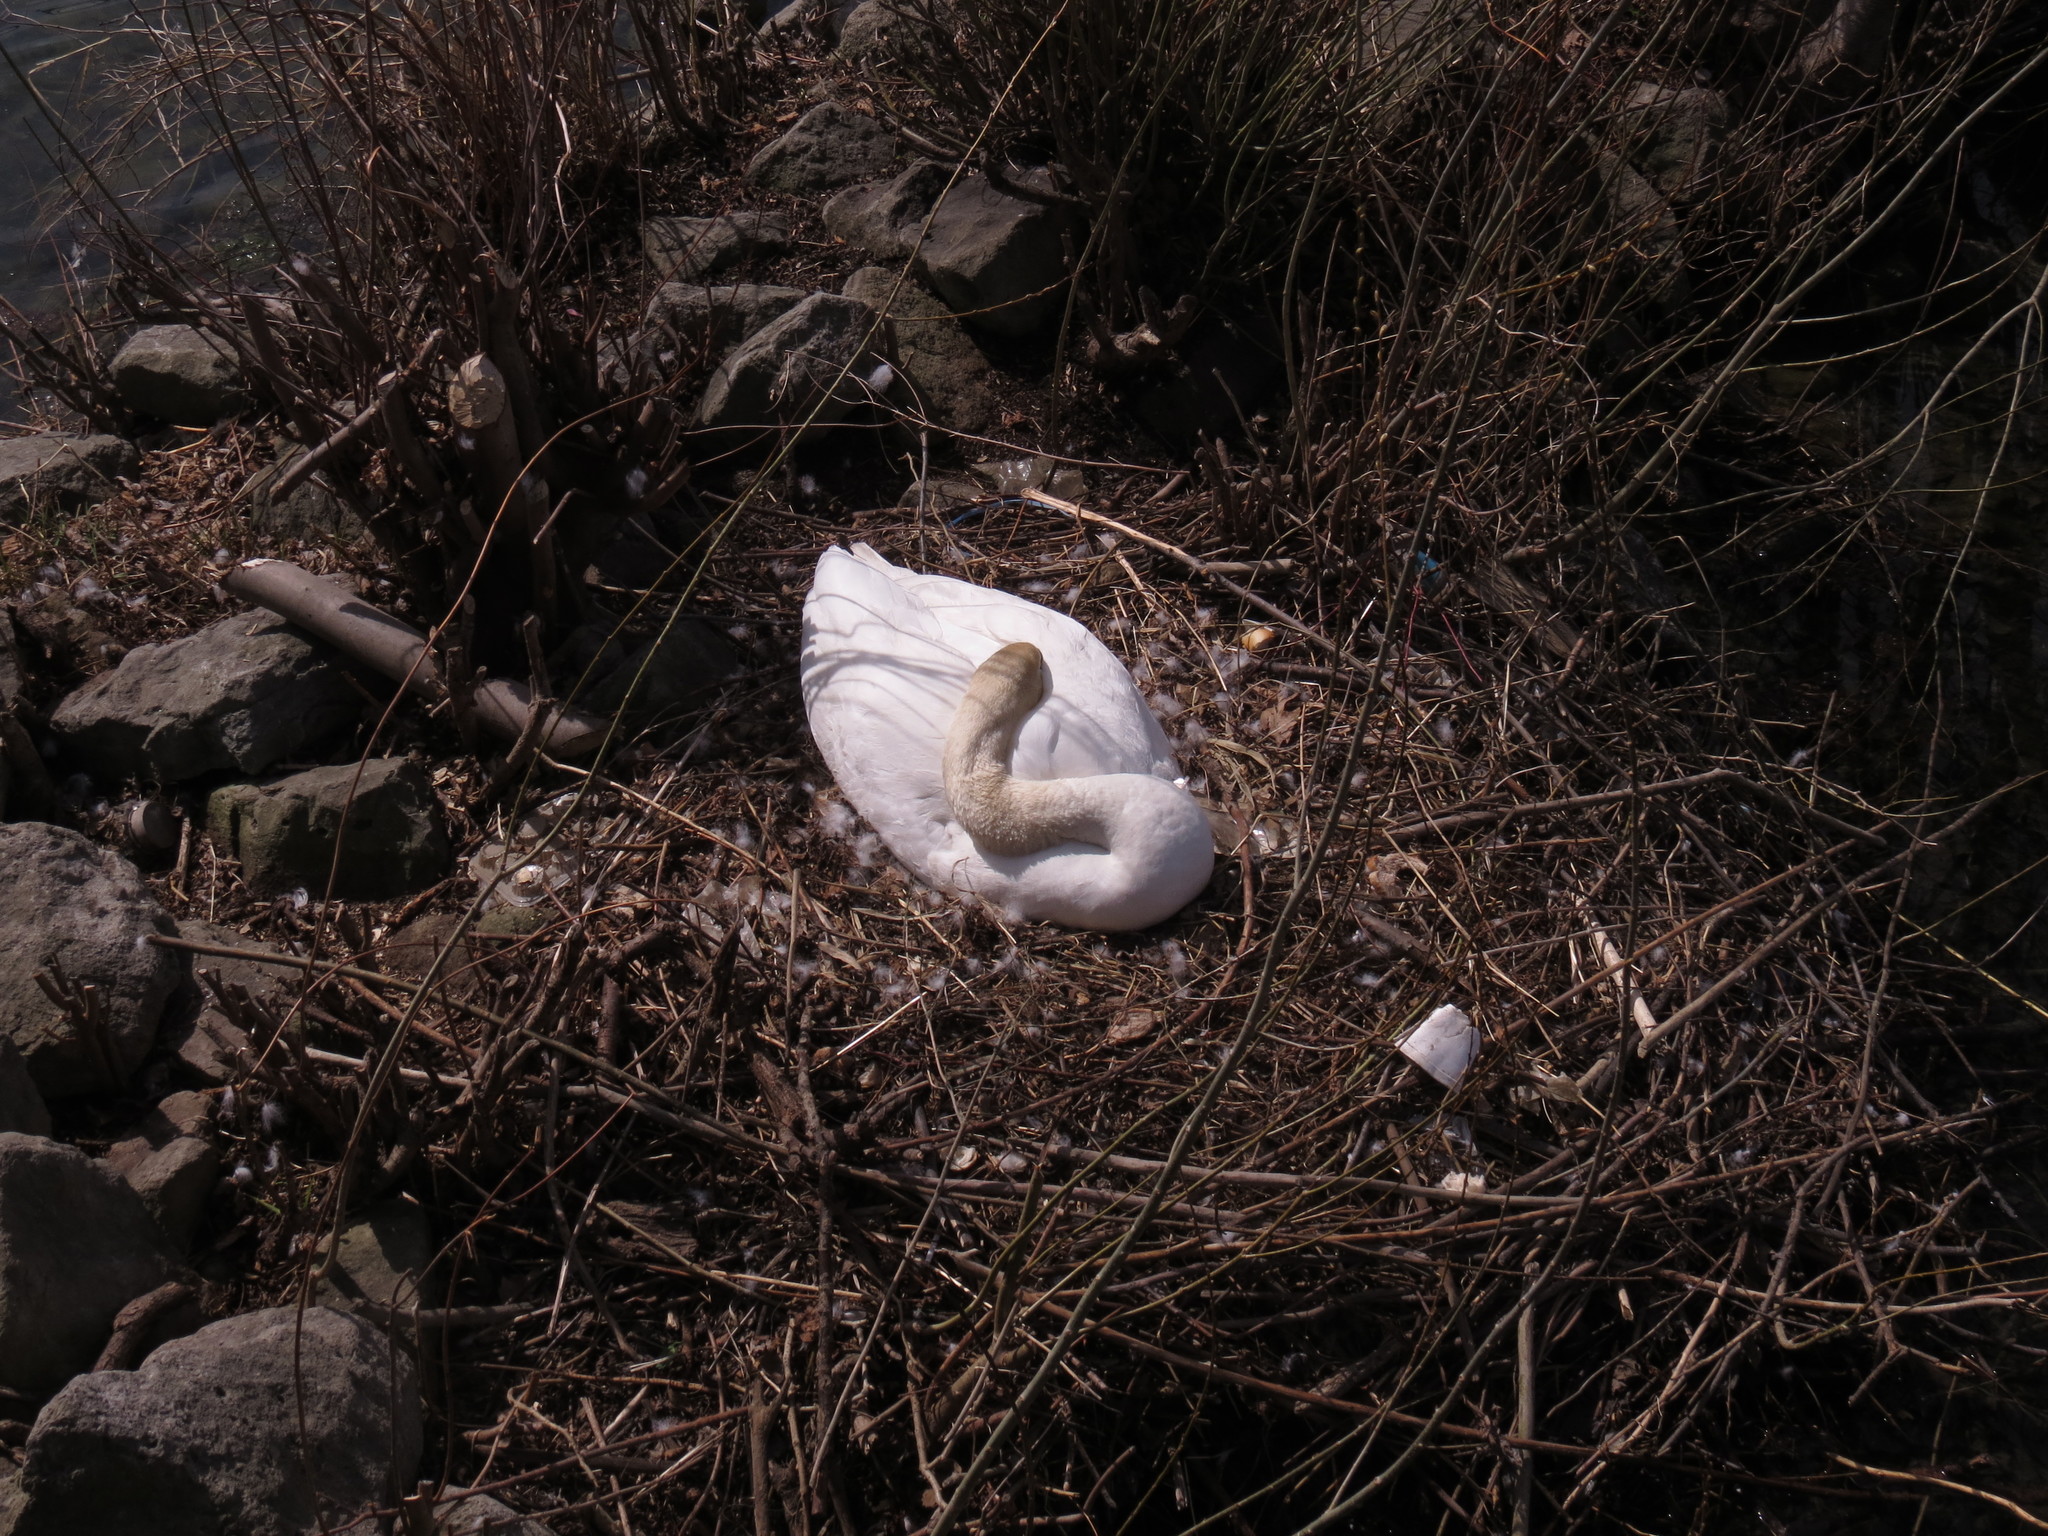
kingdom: Animalia
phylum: Chordata
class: Aves
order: Anseriformes
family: Anatidae
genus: Cygnus
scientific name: Cygnus olor
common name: Mute swan
